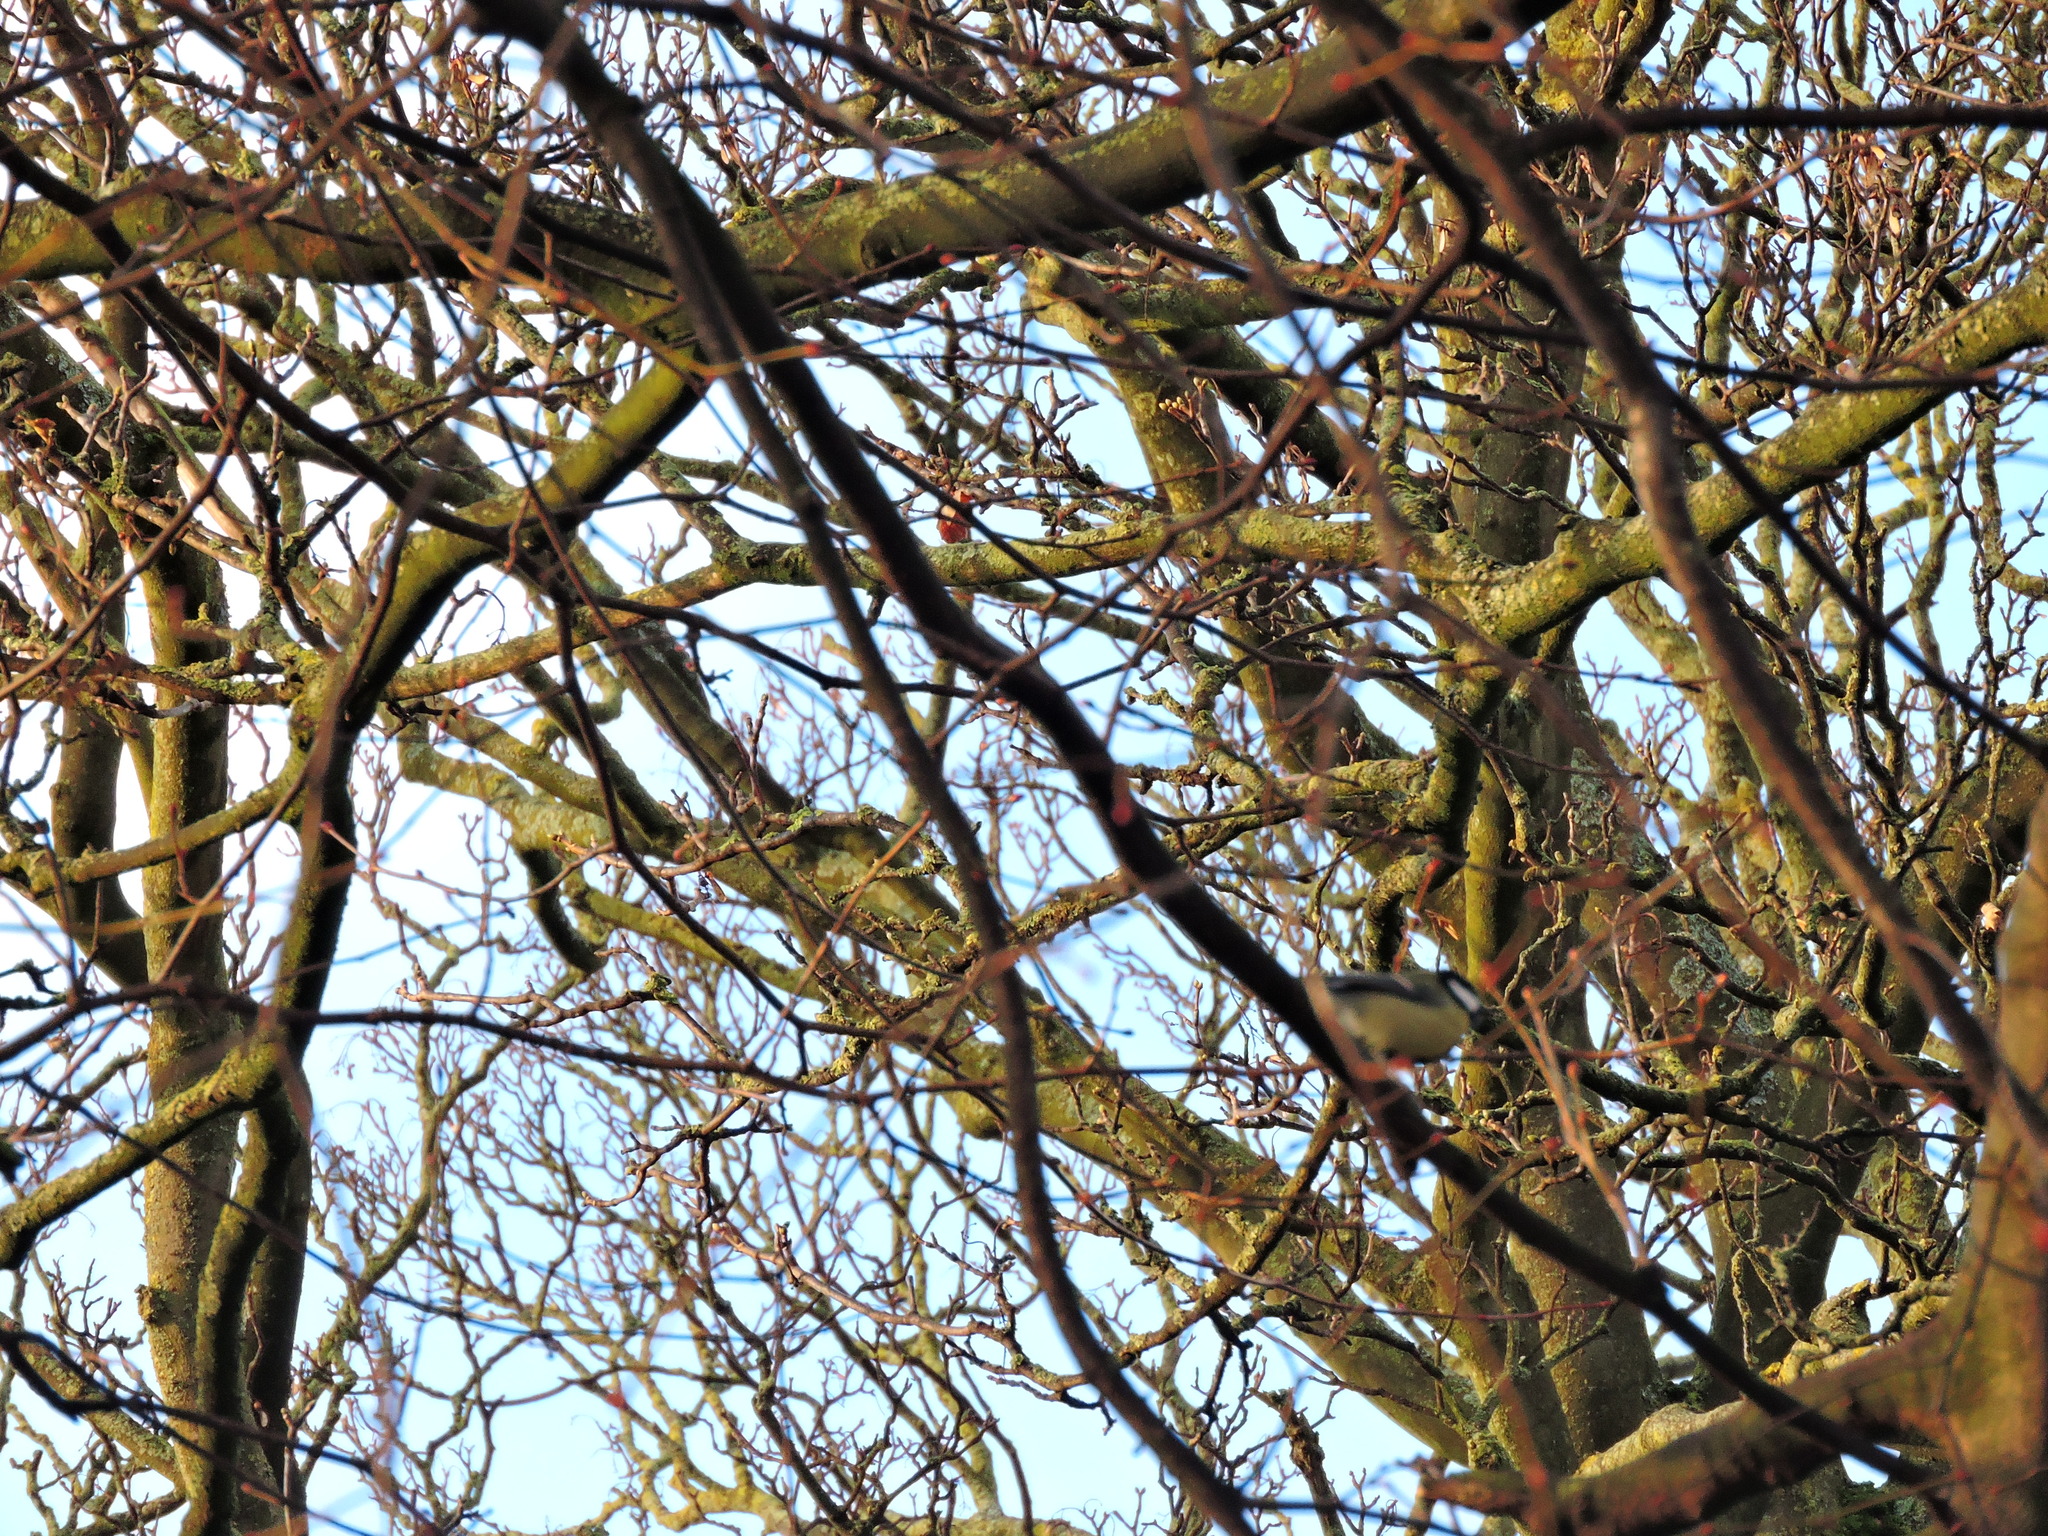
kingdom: Animalia
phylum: Chordata
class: Aves
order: Passeriformes
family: Paridae
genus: Parus
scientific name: Parus major
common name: Great tit
